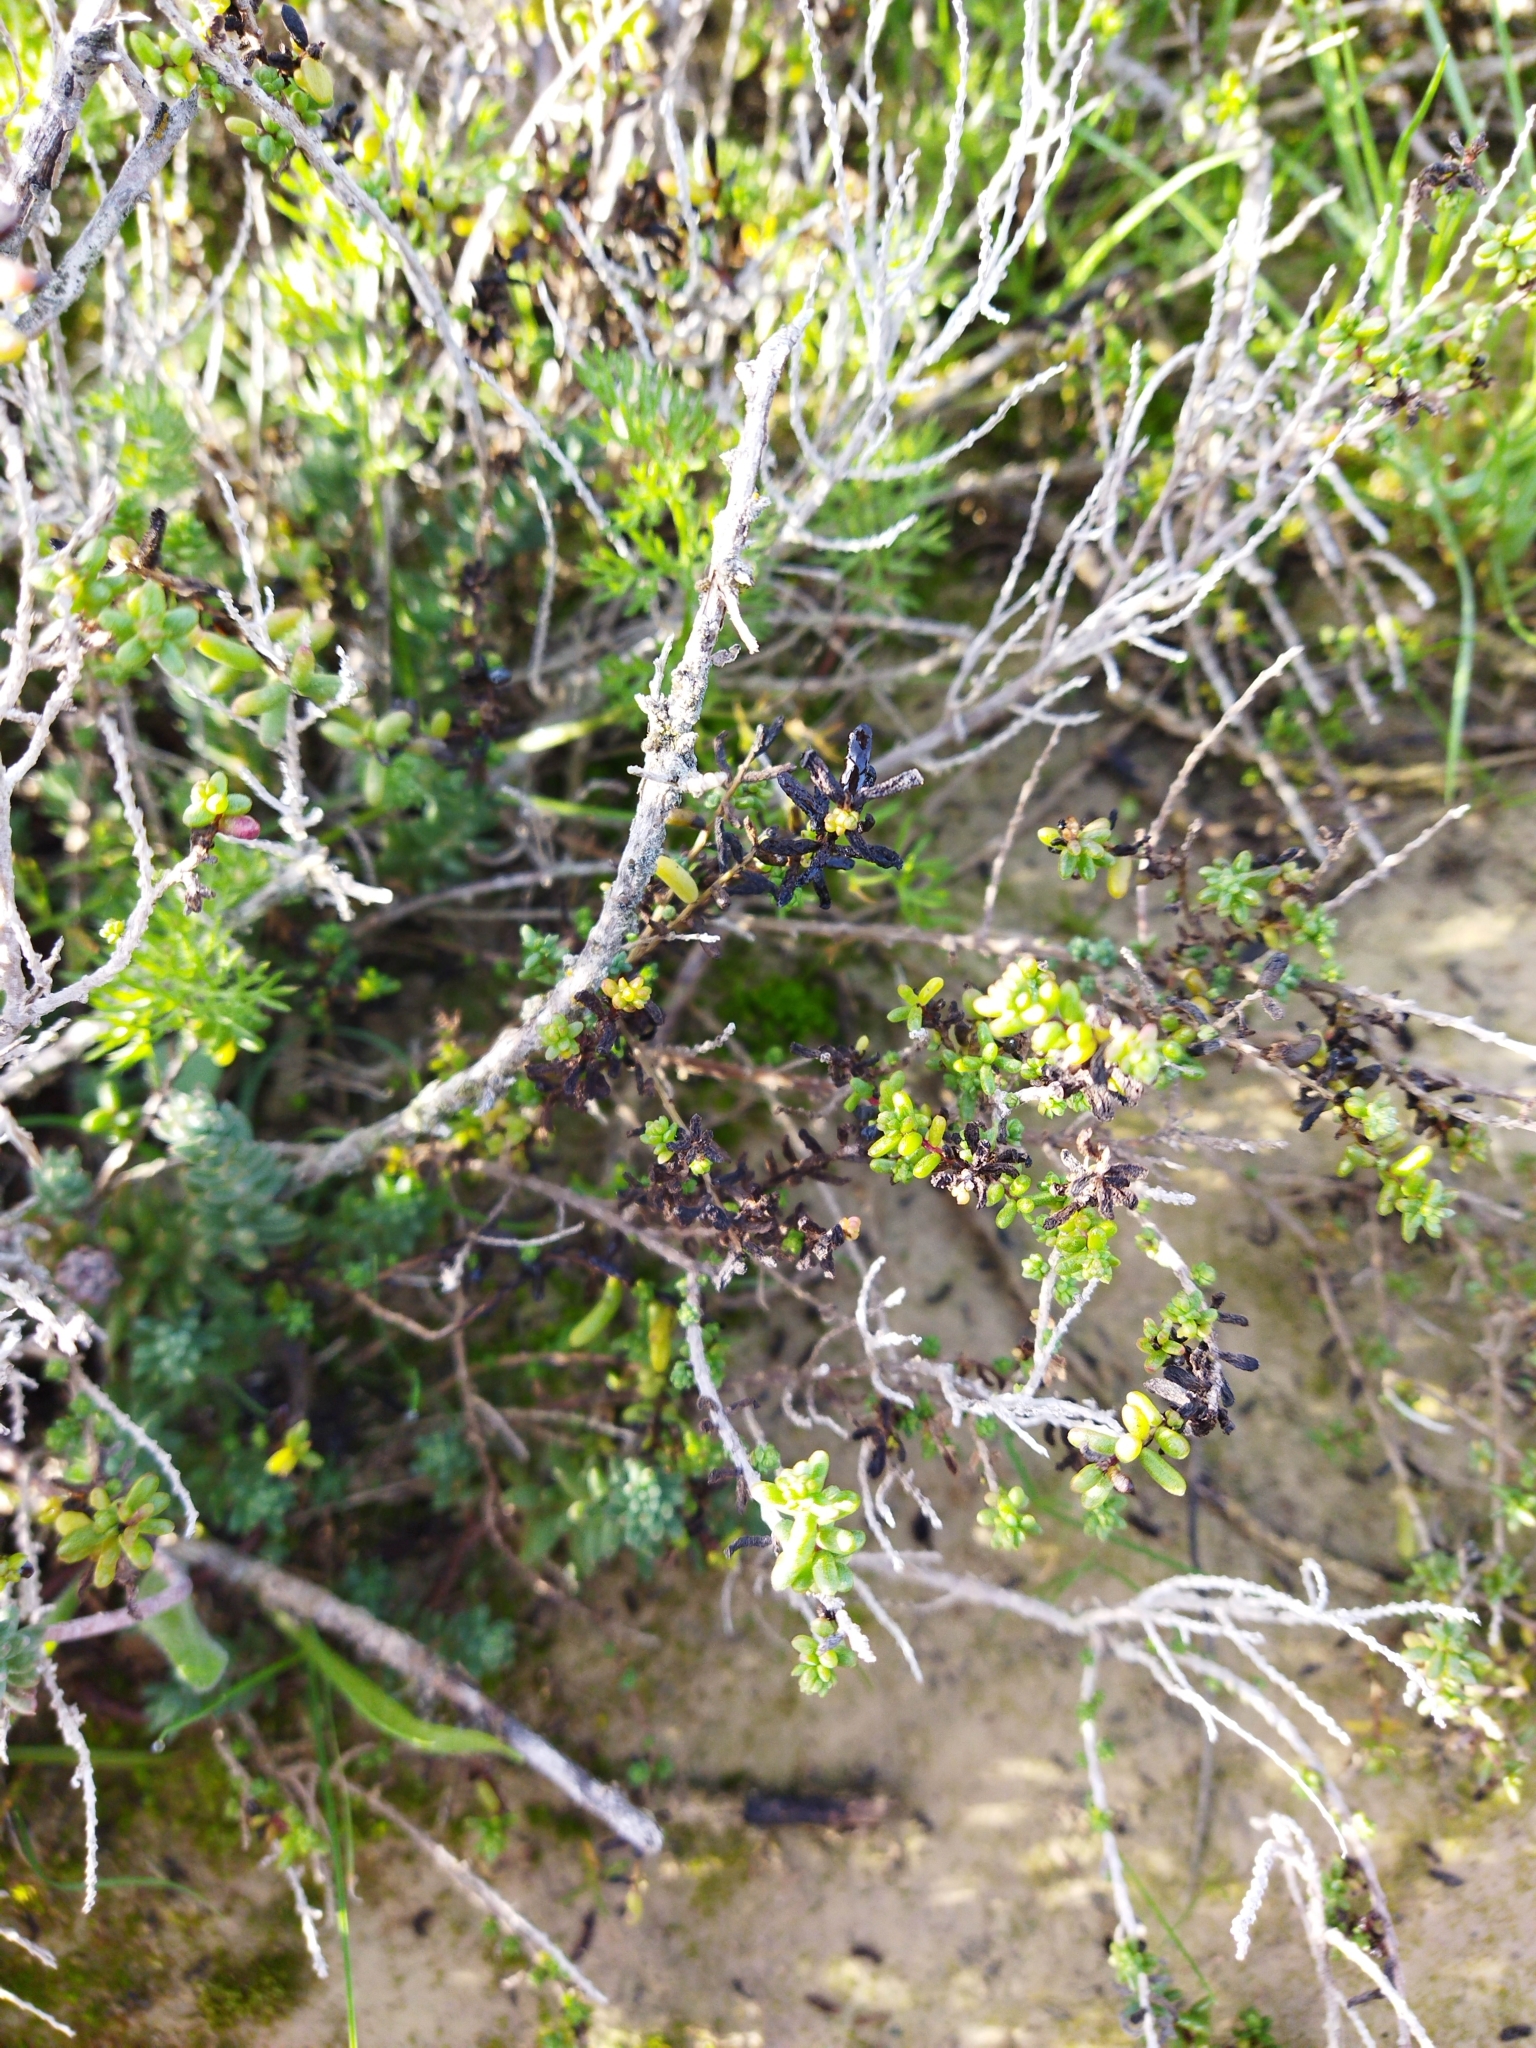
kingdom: Plantae
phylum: Tracheophyta
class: Magnoliopsida
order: Caryophyllales
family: Amaranthaceae
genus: Suaeda
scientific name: Suaeda vera
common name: Shrubby sea-blite
